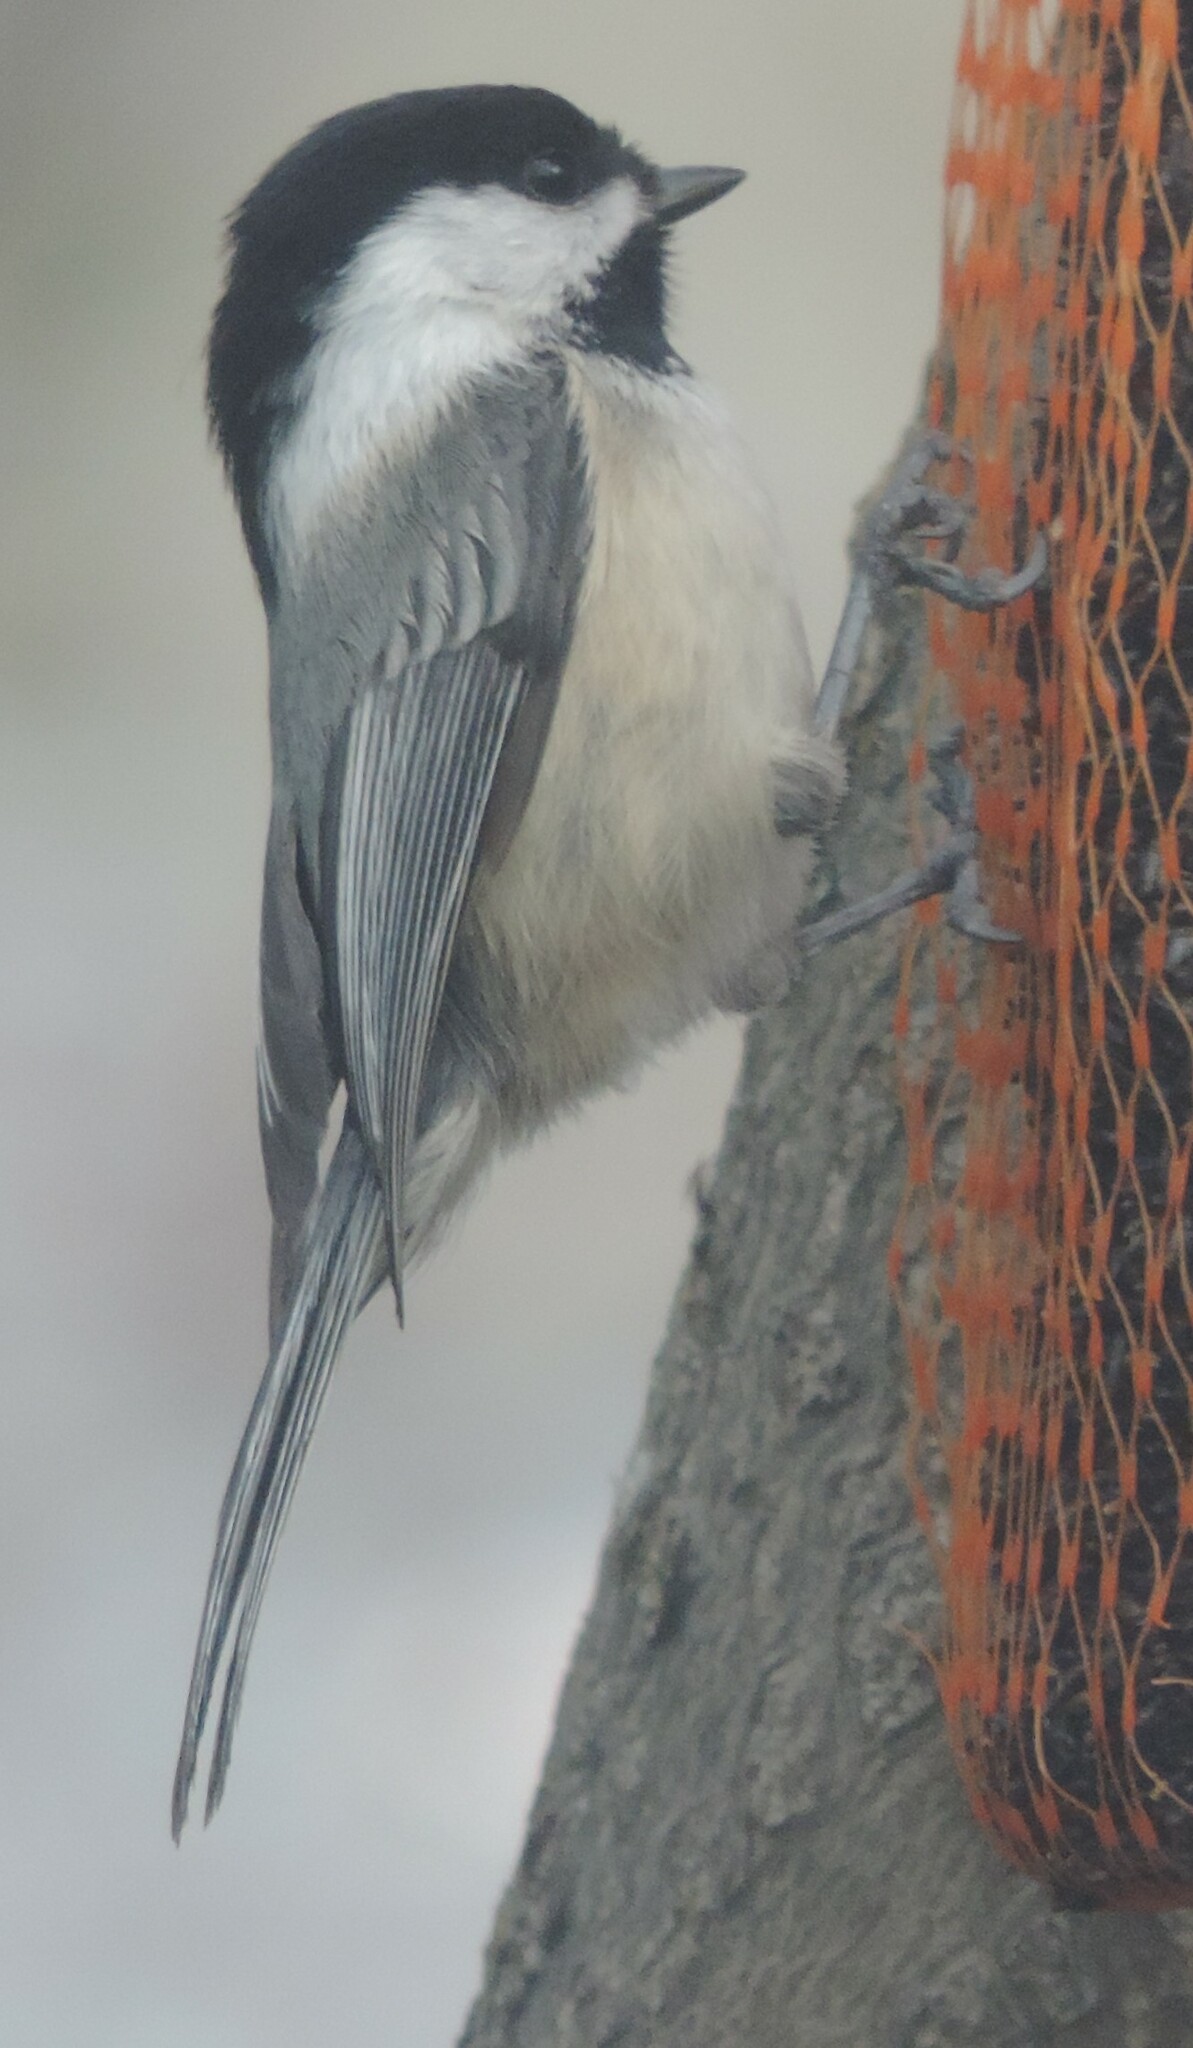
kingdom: Animalia
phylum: Chordata
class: Aves
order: Passeriformes
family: Paridae
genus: Poecile
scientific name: Poecile atricapillus
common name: Black-capped chickadee
